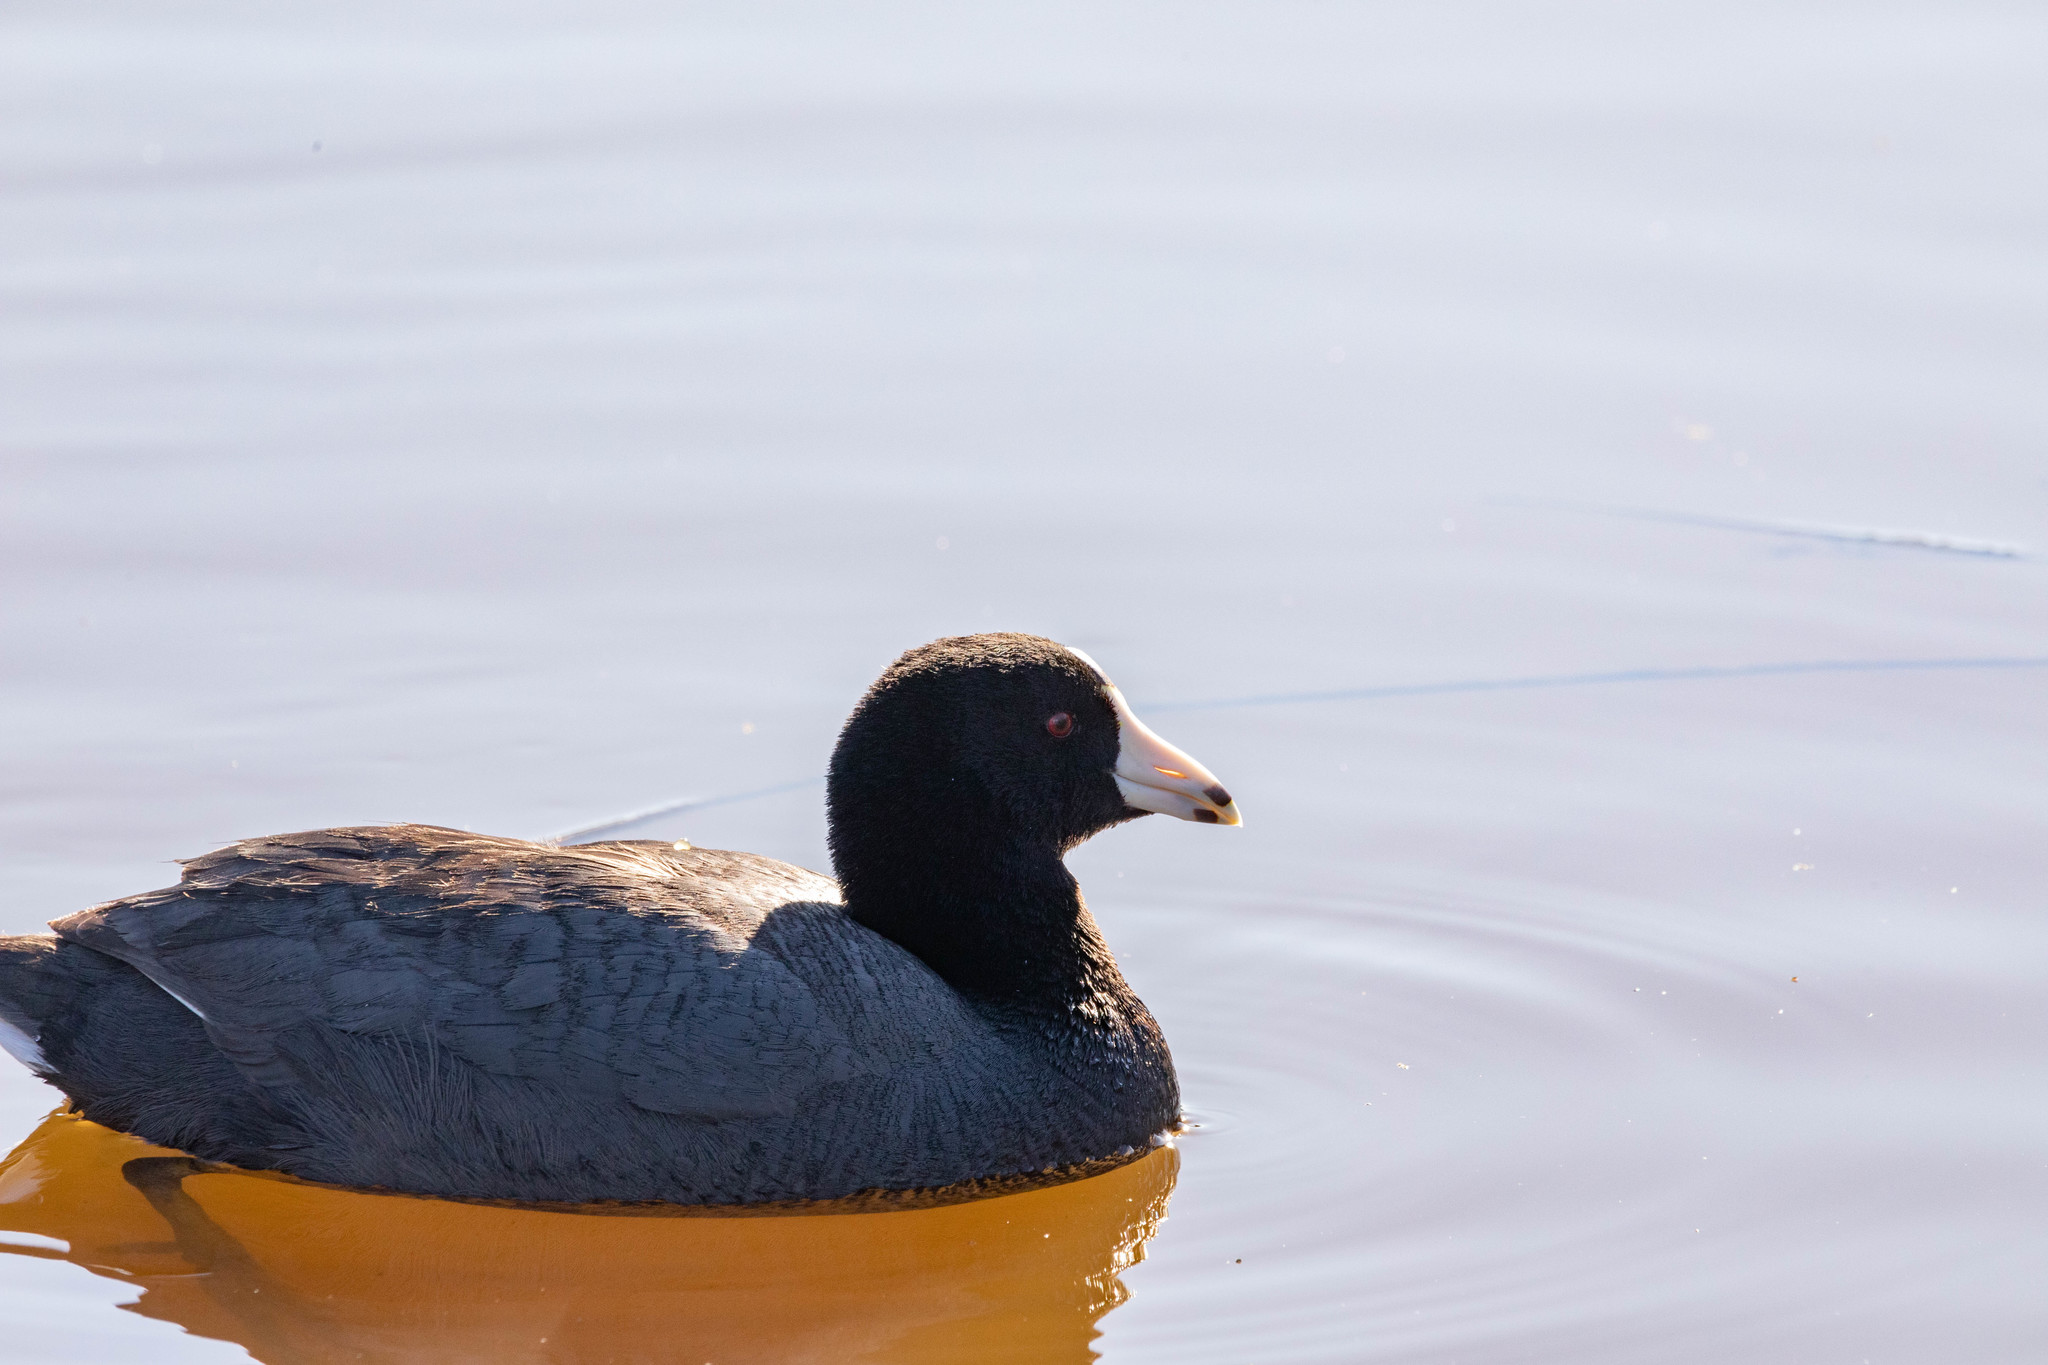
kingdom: Animalia
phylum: Chordata
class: Aves
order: Gruiformes
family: Rallidae
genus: Fulica
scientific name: Fulica americana
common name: American coot
